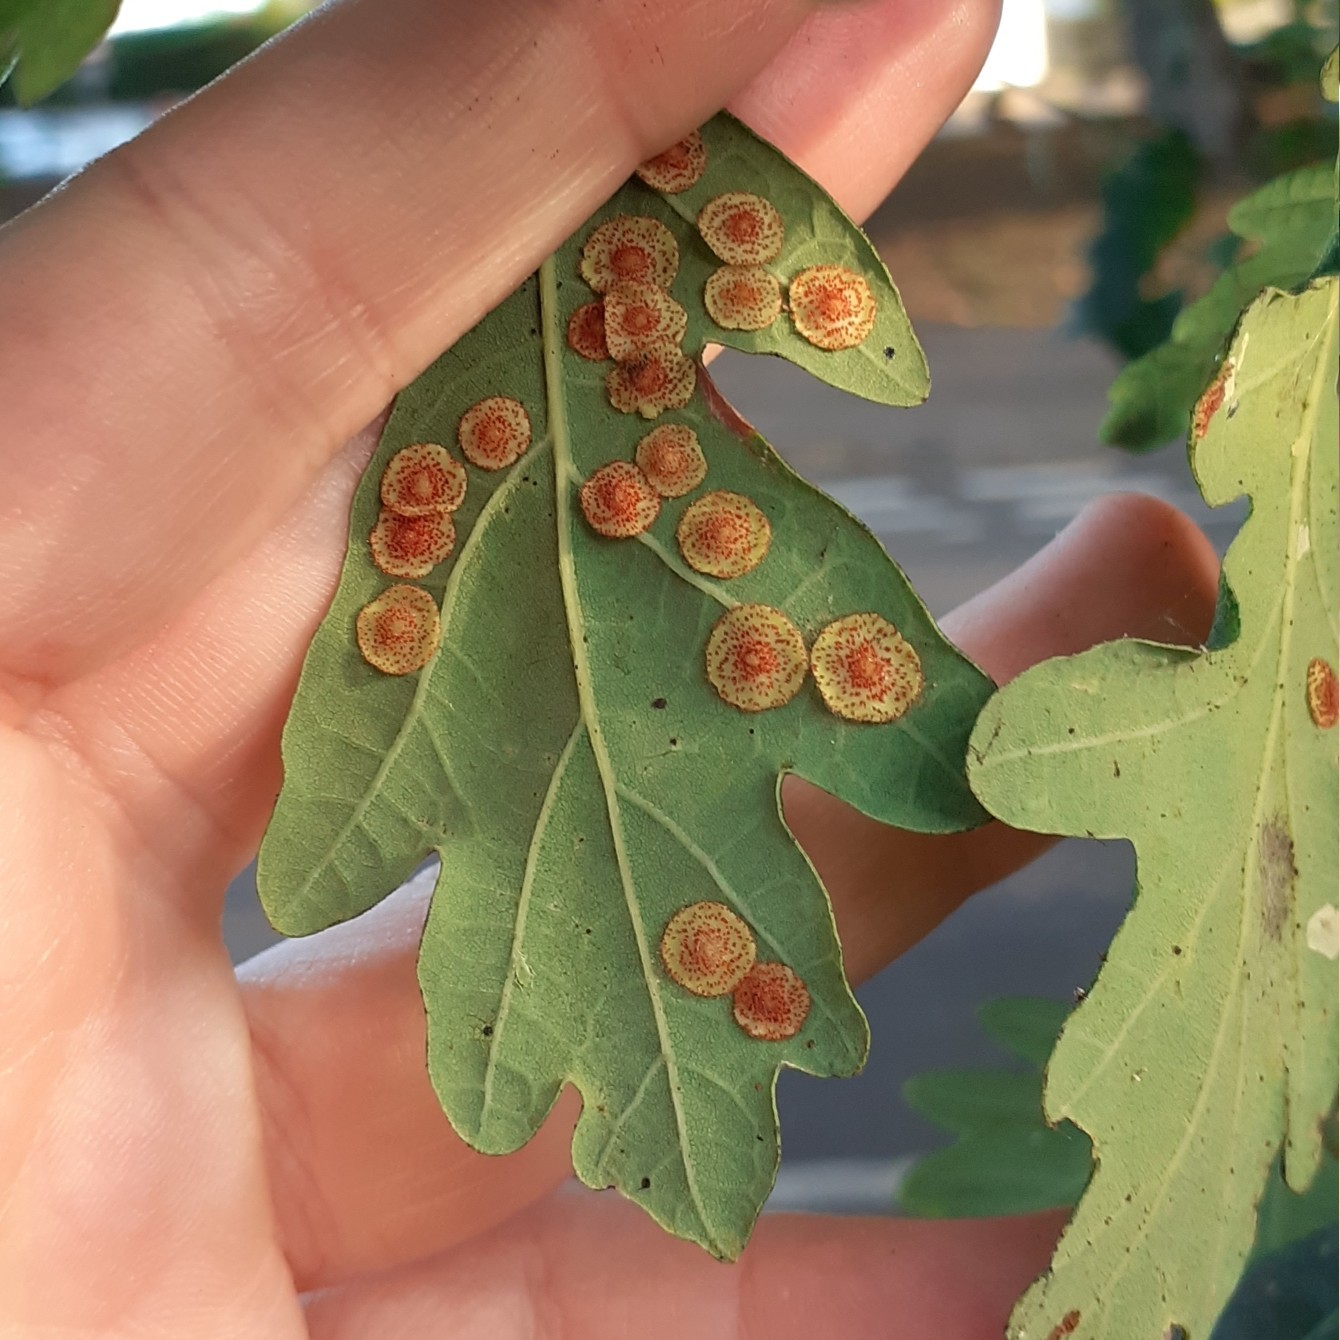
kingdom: Animalia
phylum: Arthropoda
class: Insecta
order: Hymenoptera
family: Cynipidae
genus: Neuroterus
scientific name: Neuroterus quercusbaccarum
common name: Common spangle gall
